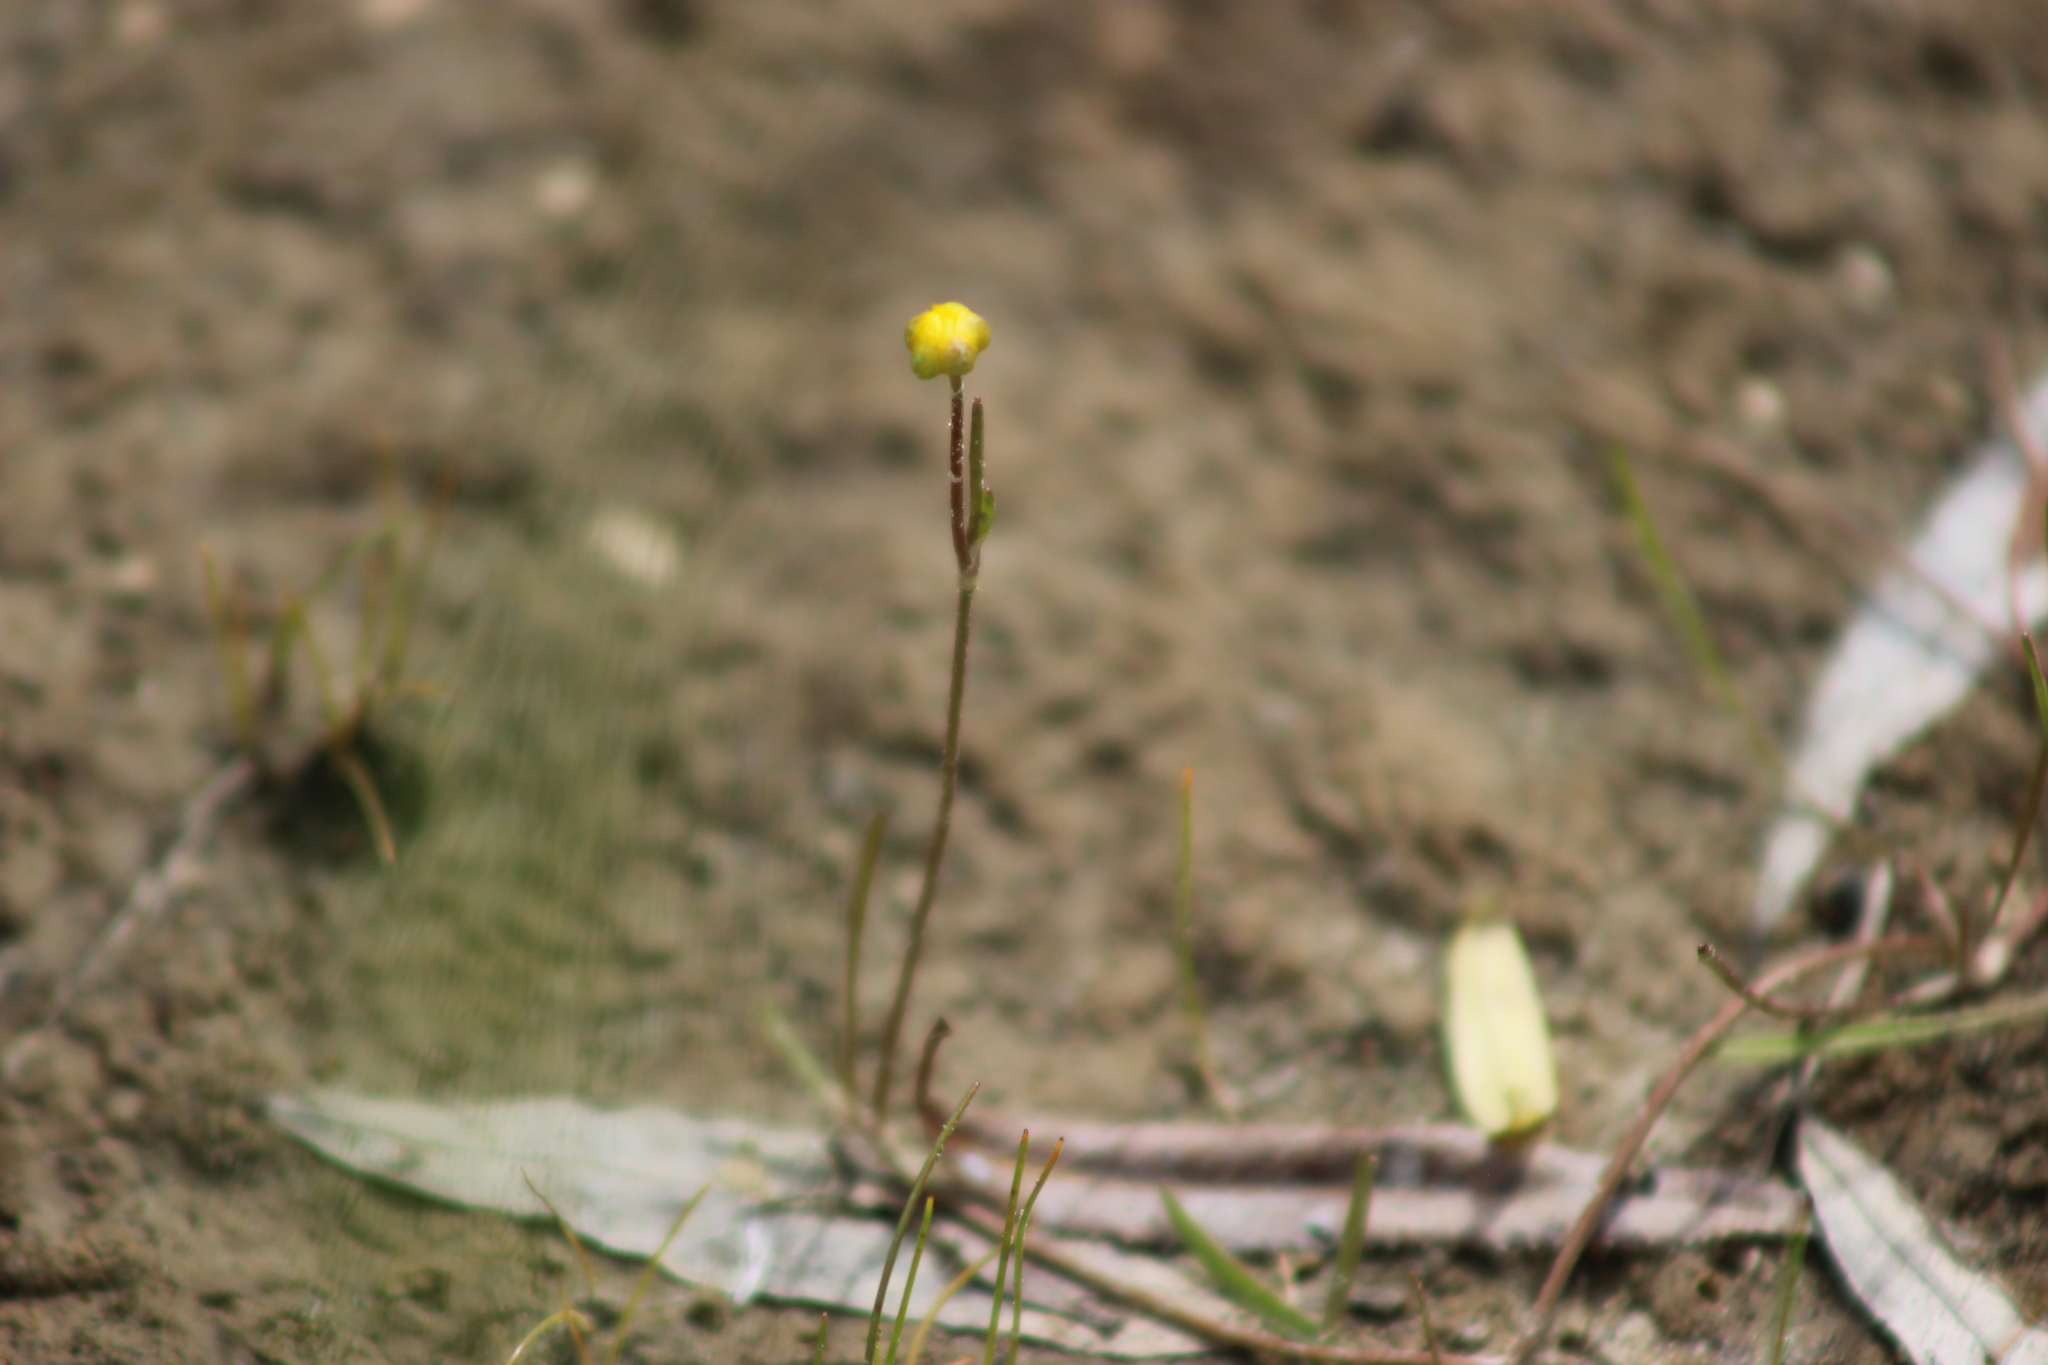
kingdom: Plantae
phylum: Tracheophyta
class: Magnoliopsida
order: Ranunculales
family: Ranunculaceae
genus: Ranunculus
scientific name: Ranunculus reptans
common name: Creeping spearwort
